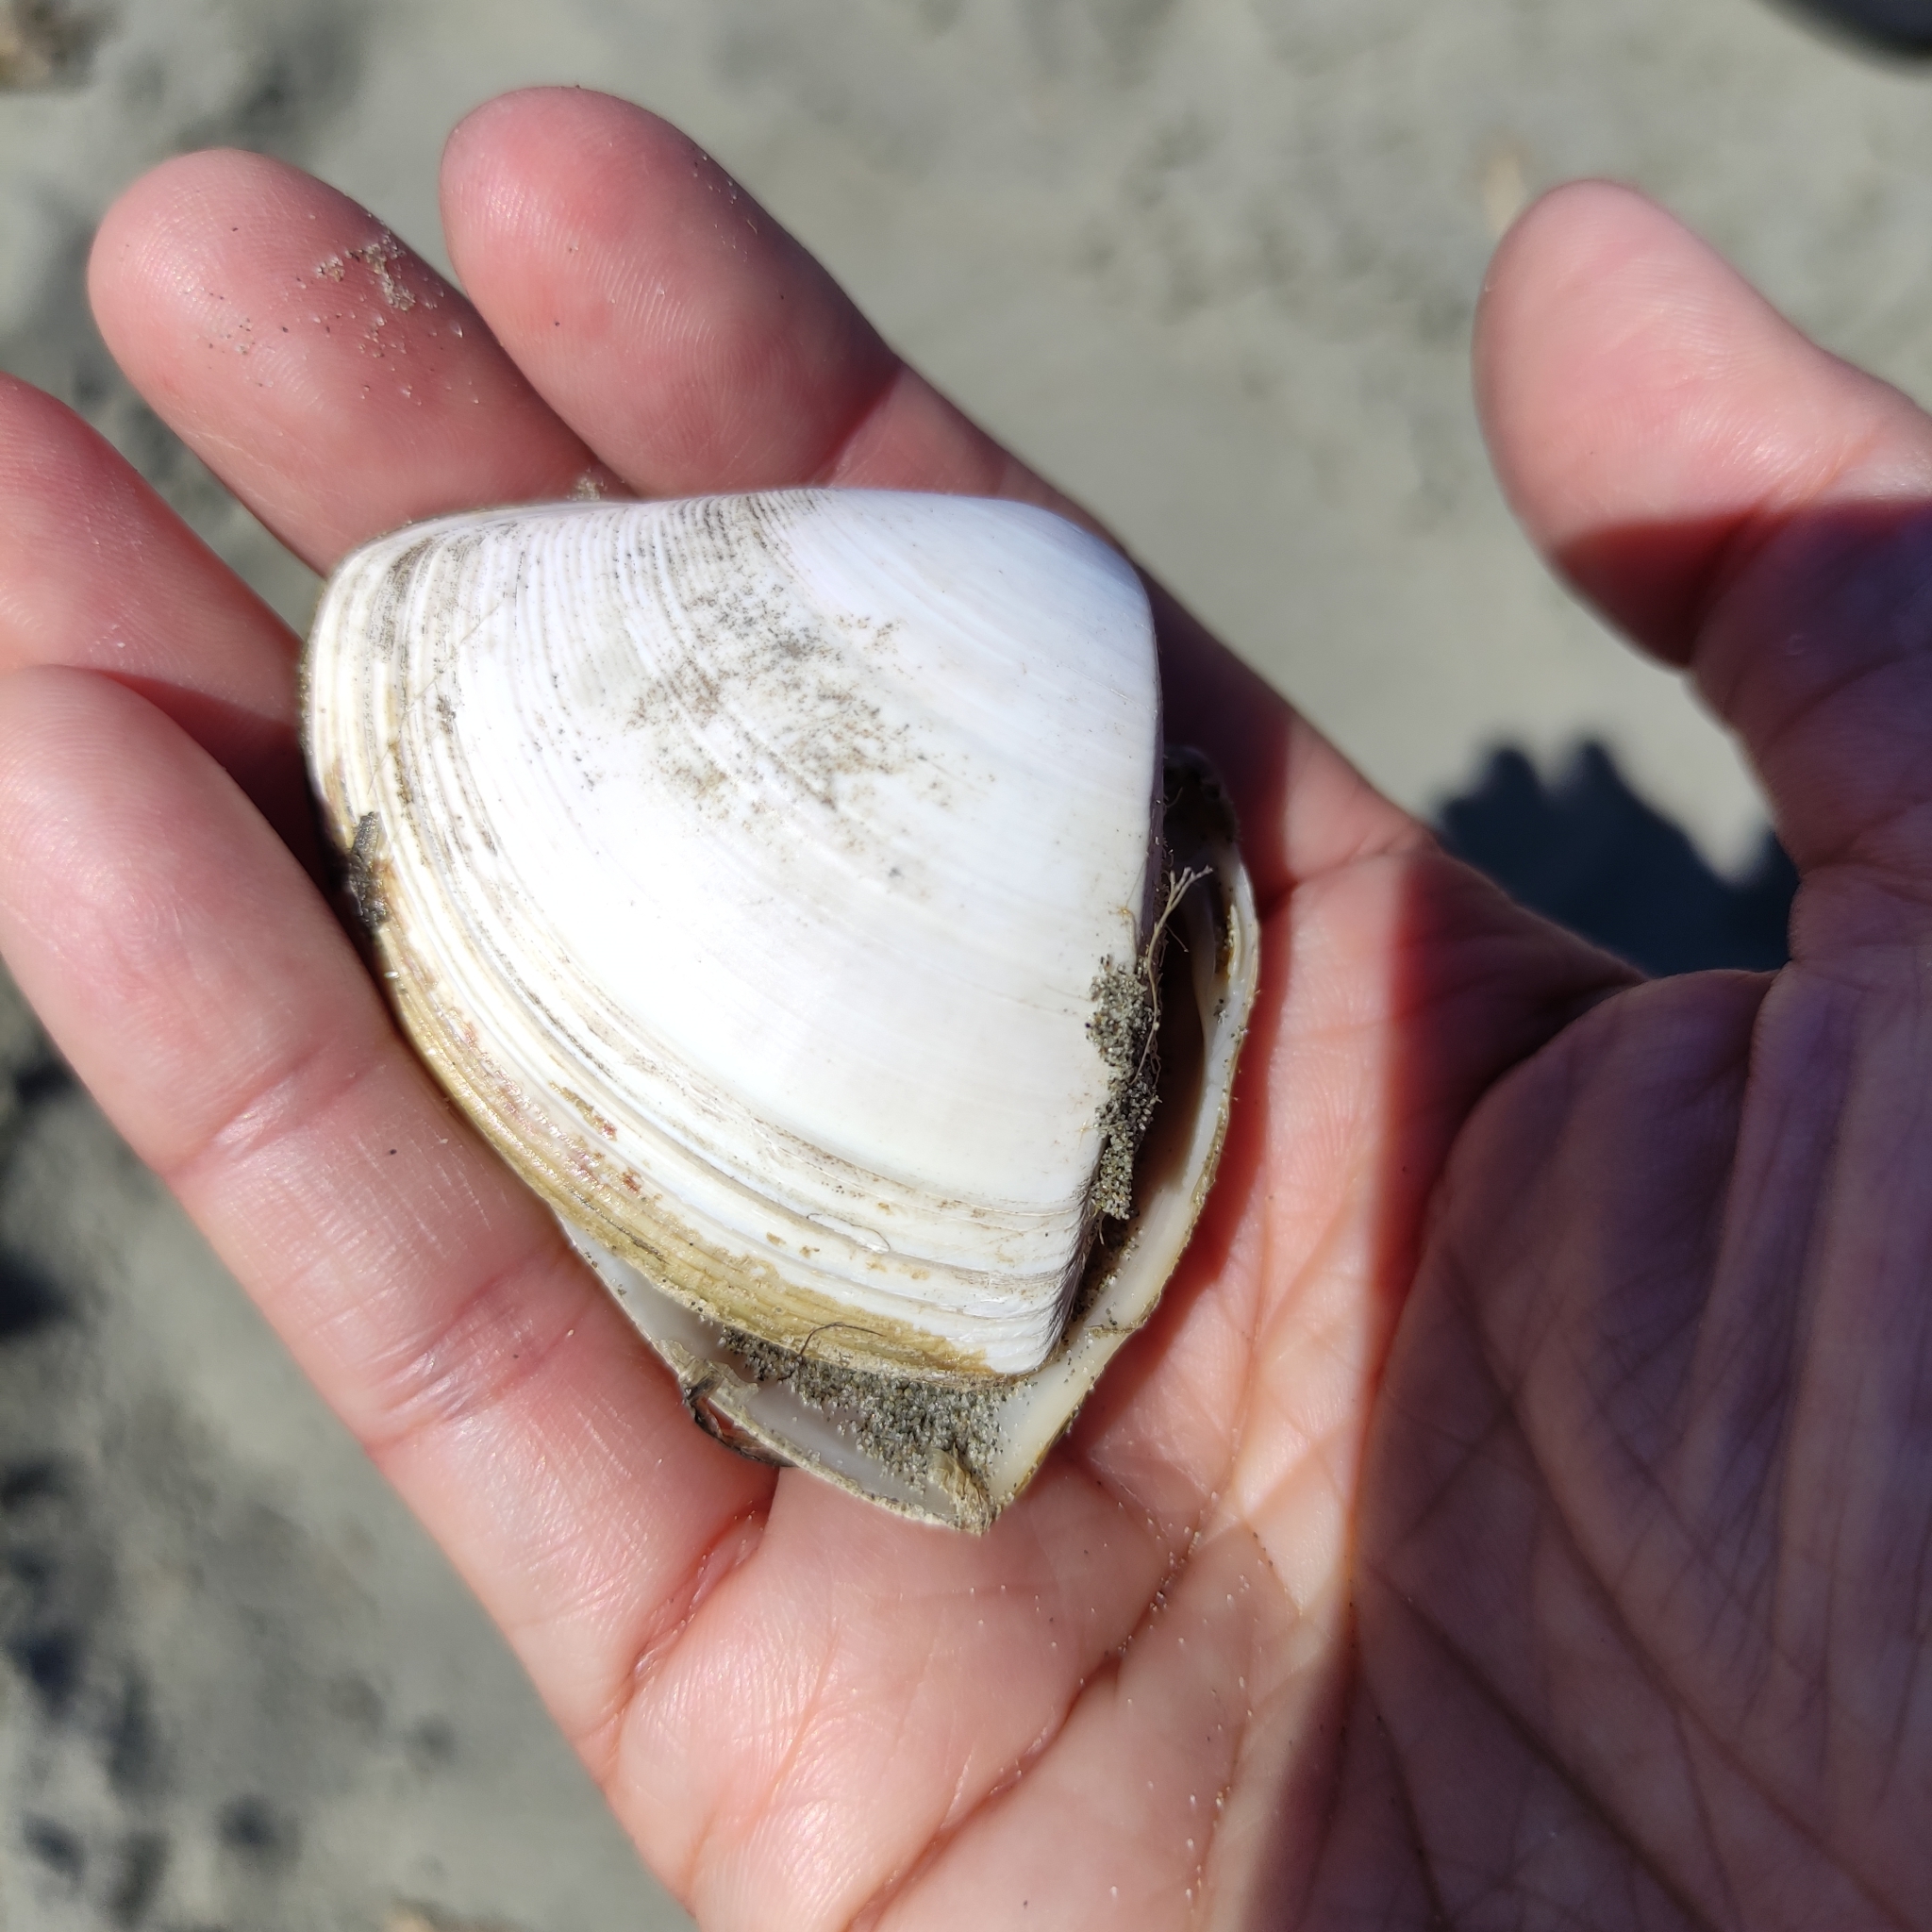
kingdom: Animalia
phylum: Mollusca
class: Bivalvia
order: Venerida
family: Mactridae
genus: Crassula
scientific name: Crassula aequilatera
